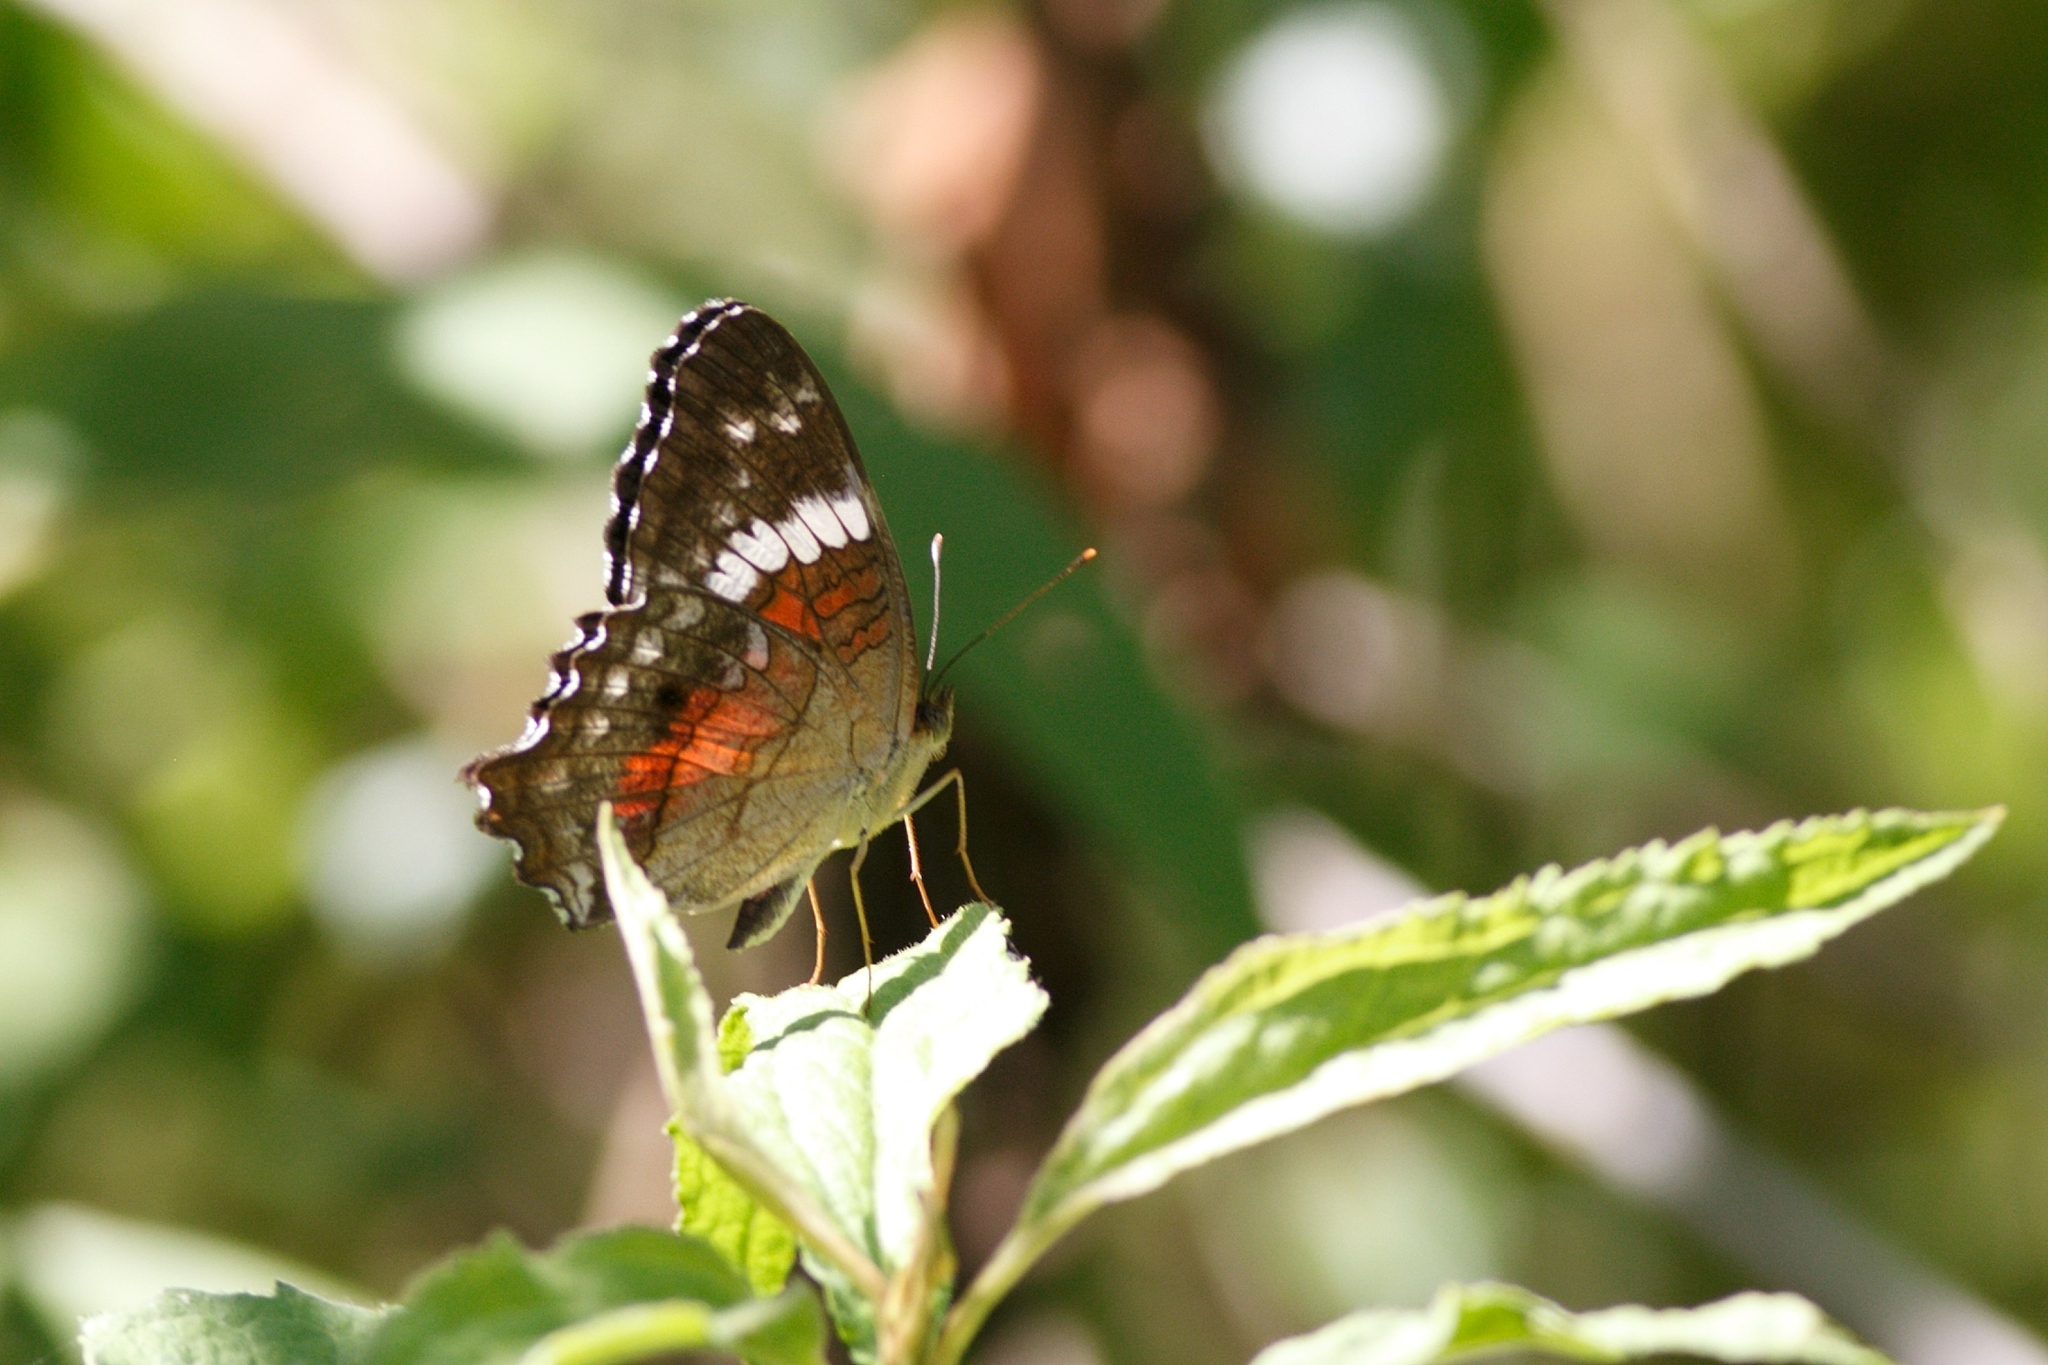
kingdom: Animalia
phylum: Arthropoda
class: Insecta
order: Lepidoptera
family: Nymphalidae
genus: Anartia
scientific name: Anartia amathea
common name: Red peacock
